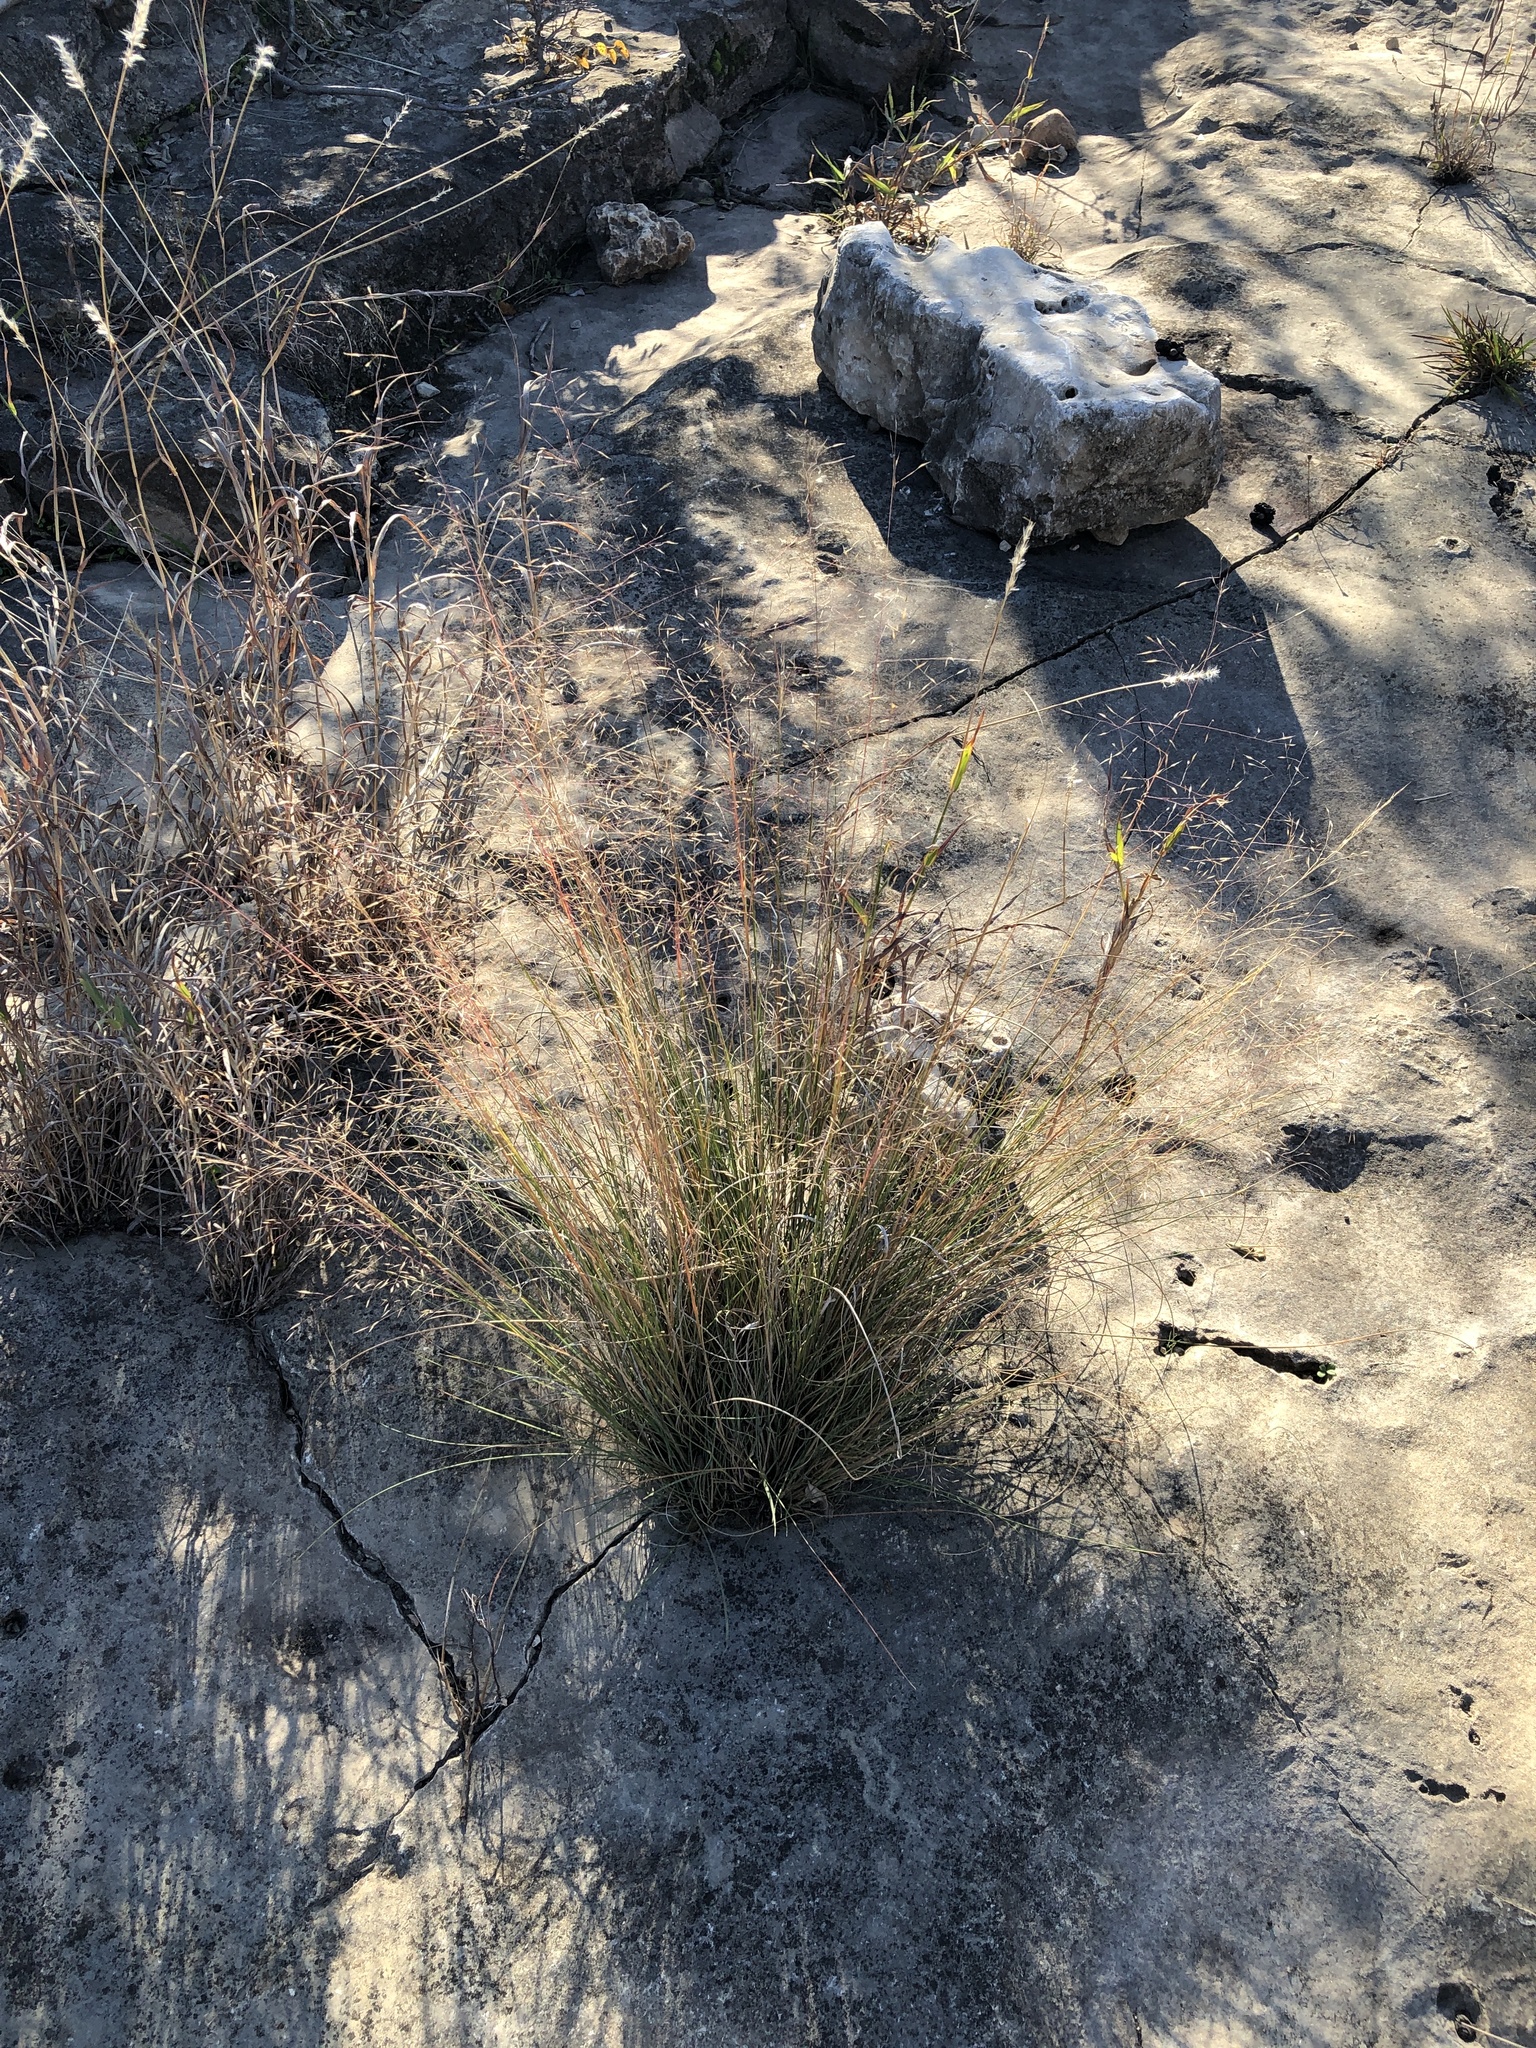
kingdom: Plantae
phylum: Tracheophyta
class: Liliopsida
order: Poales
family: Poaceae
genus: Muhlenbergia
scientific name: Muhlenbergia reverchonii
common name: Seep muhly
